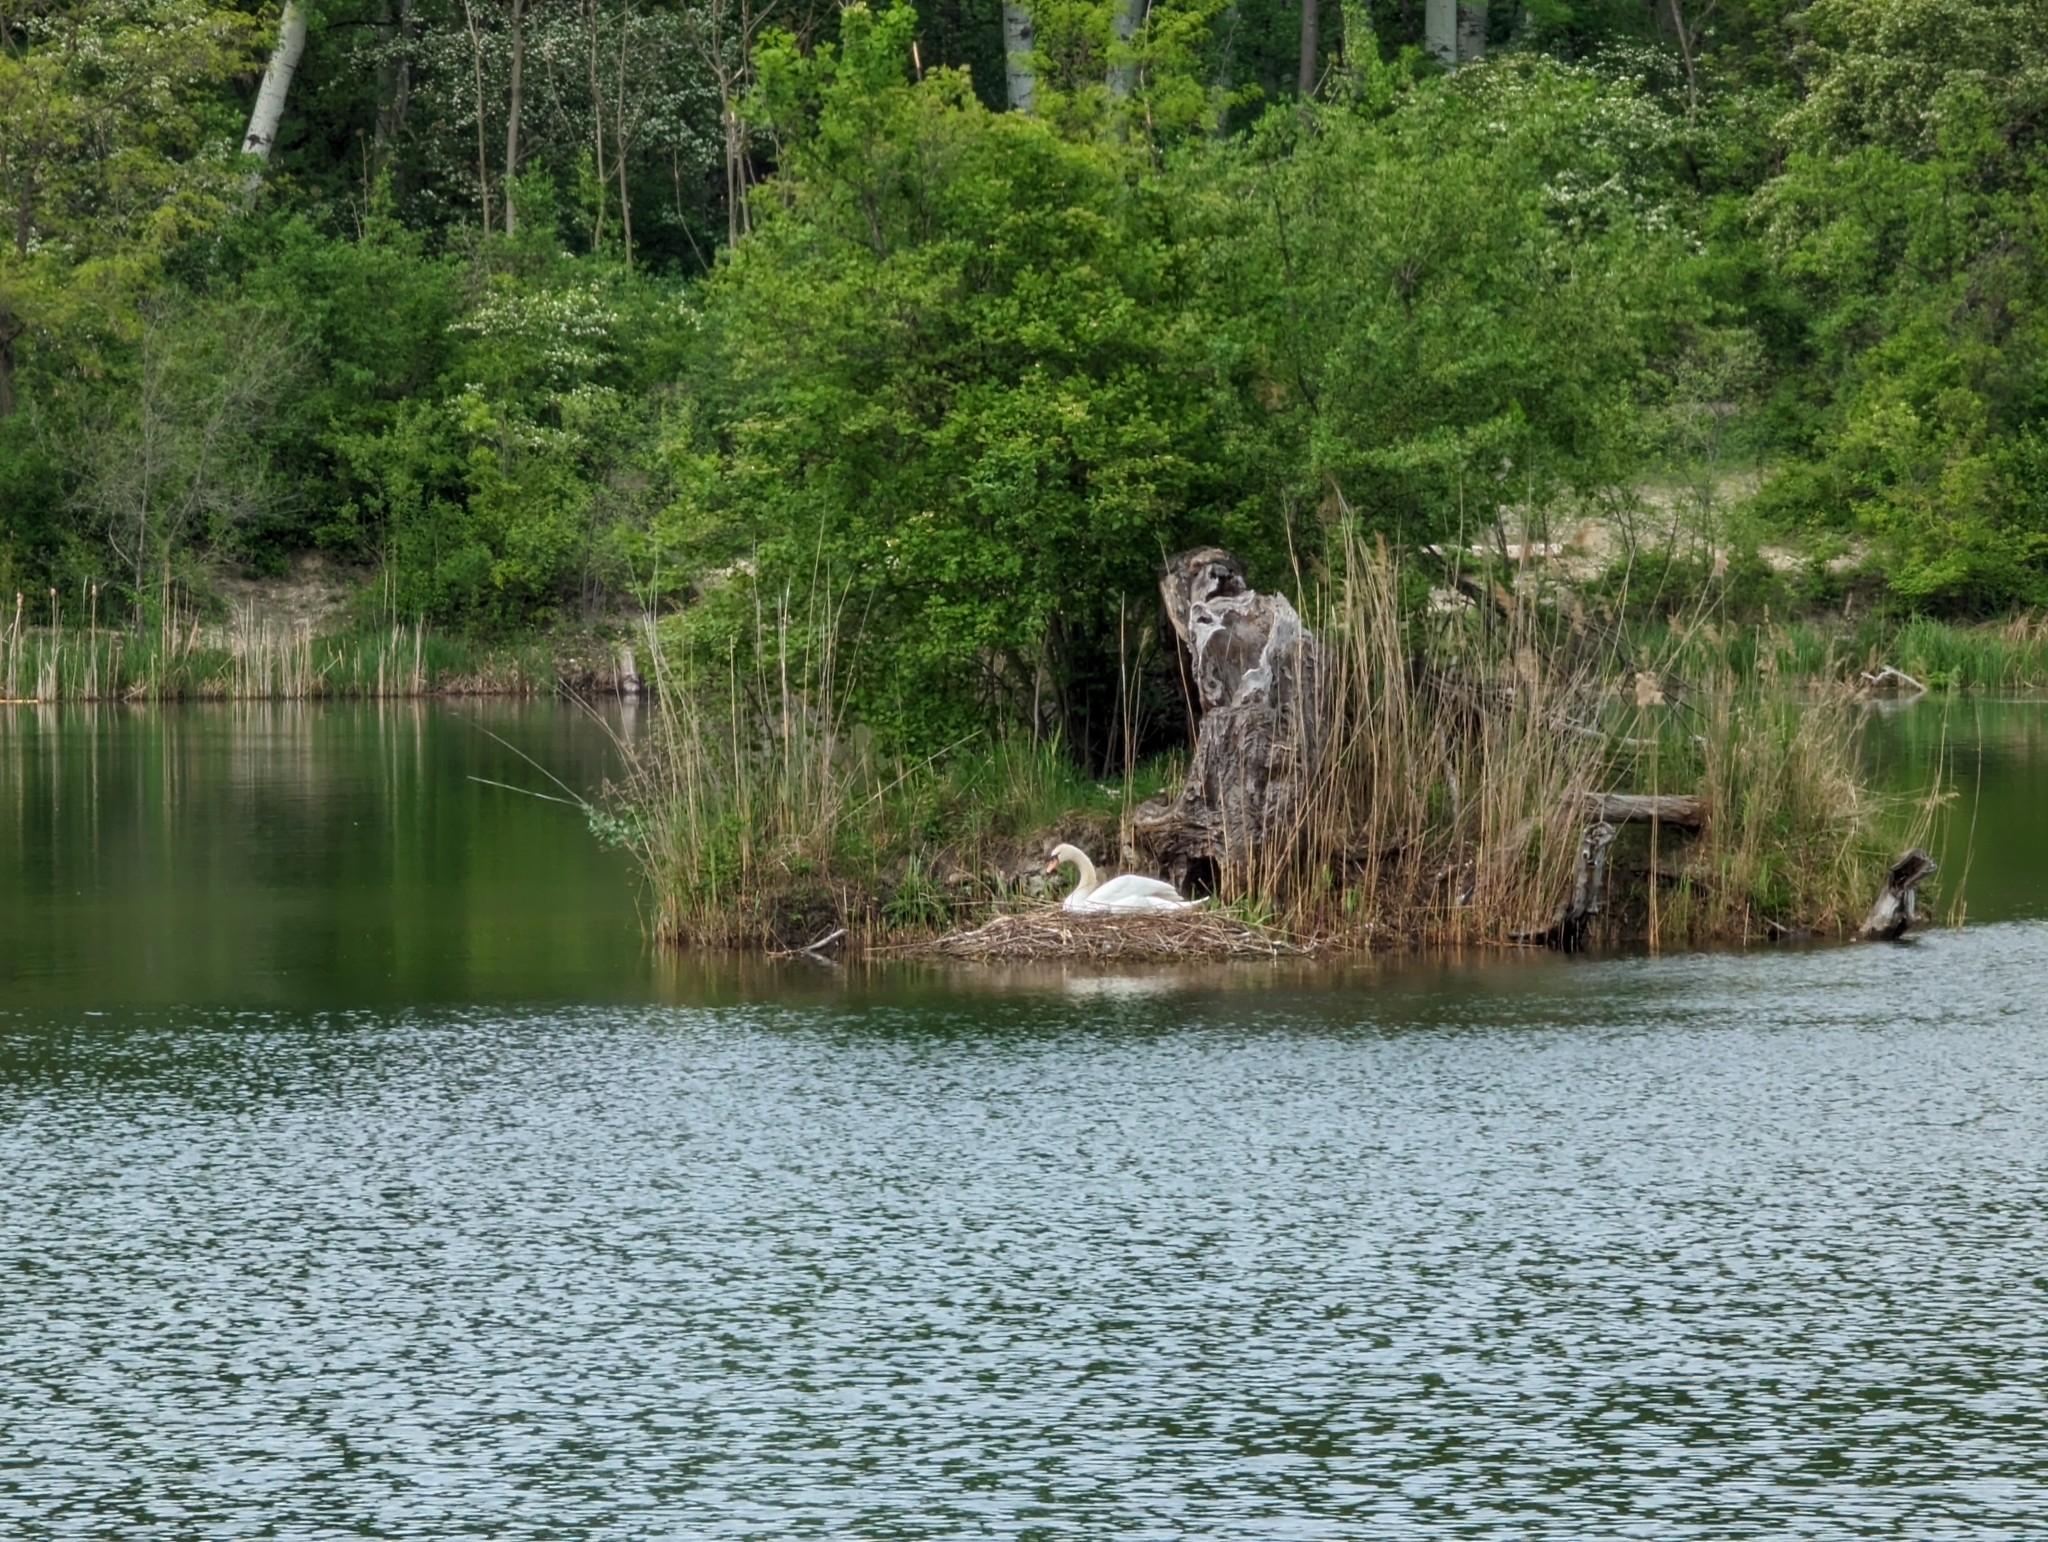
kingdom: Animalia
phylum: Chordata
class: Aves
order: Anseriformes
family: Anatidae
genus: Cygnus
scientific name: Cygnus olor
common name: Mute swan
